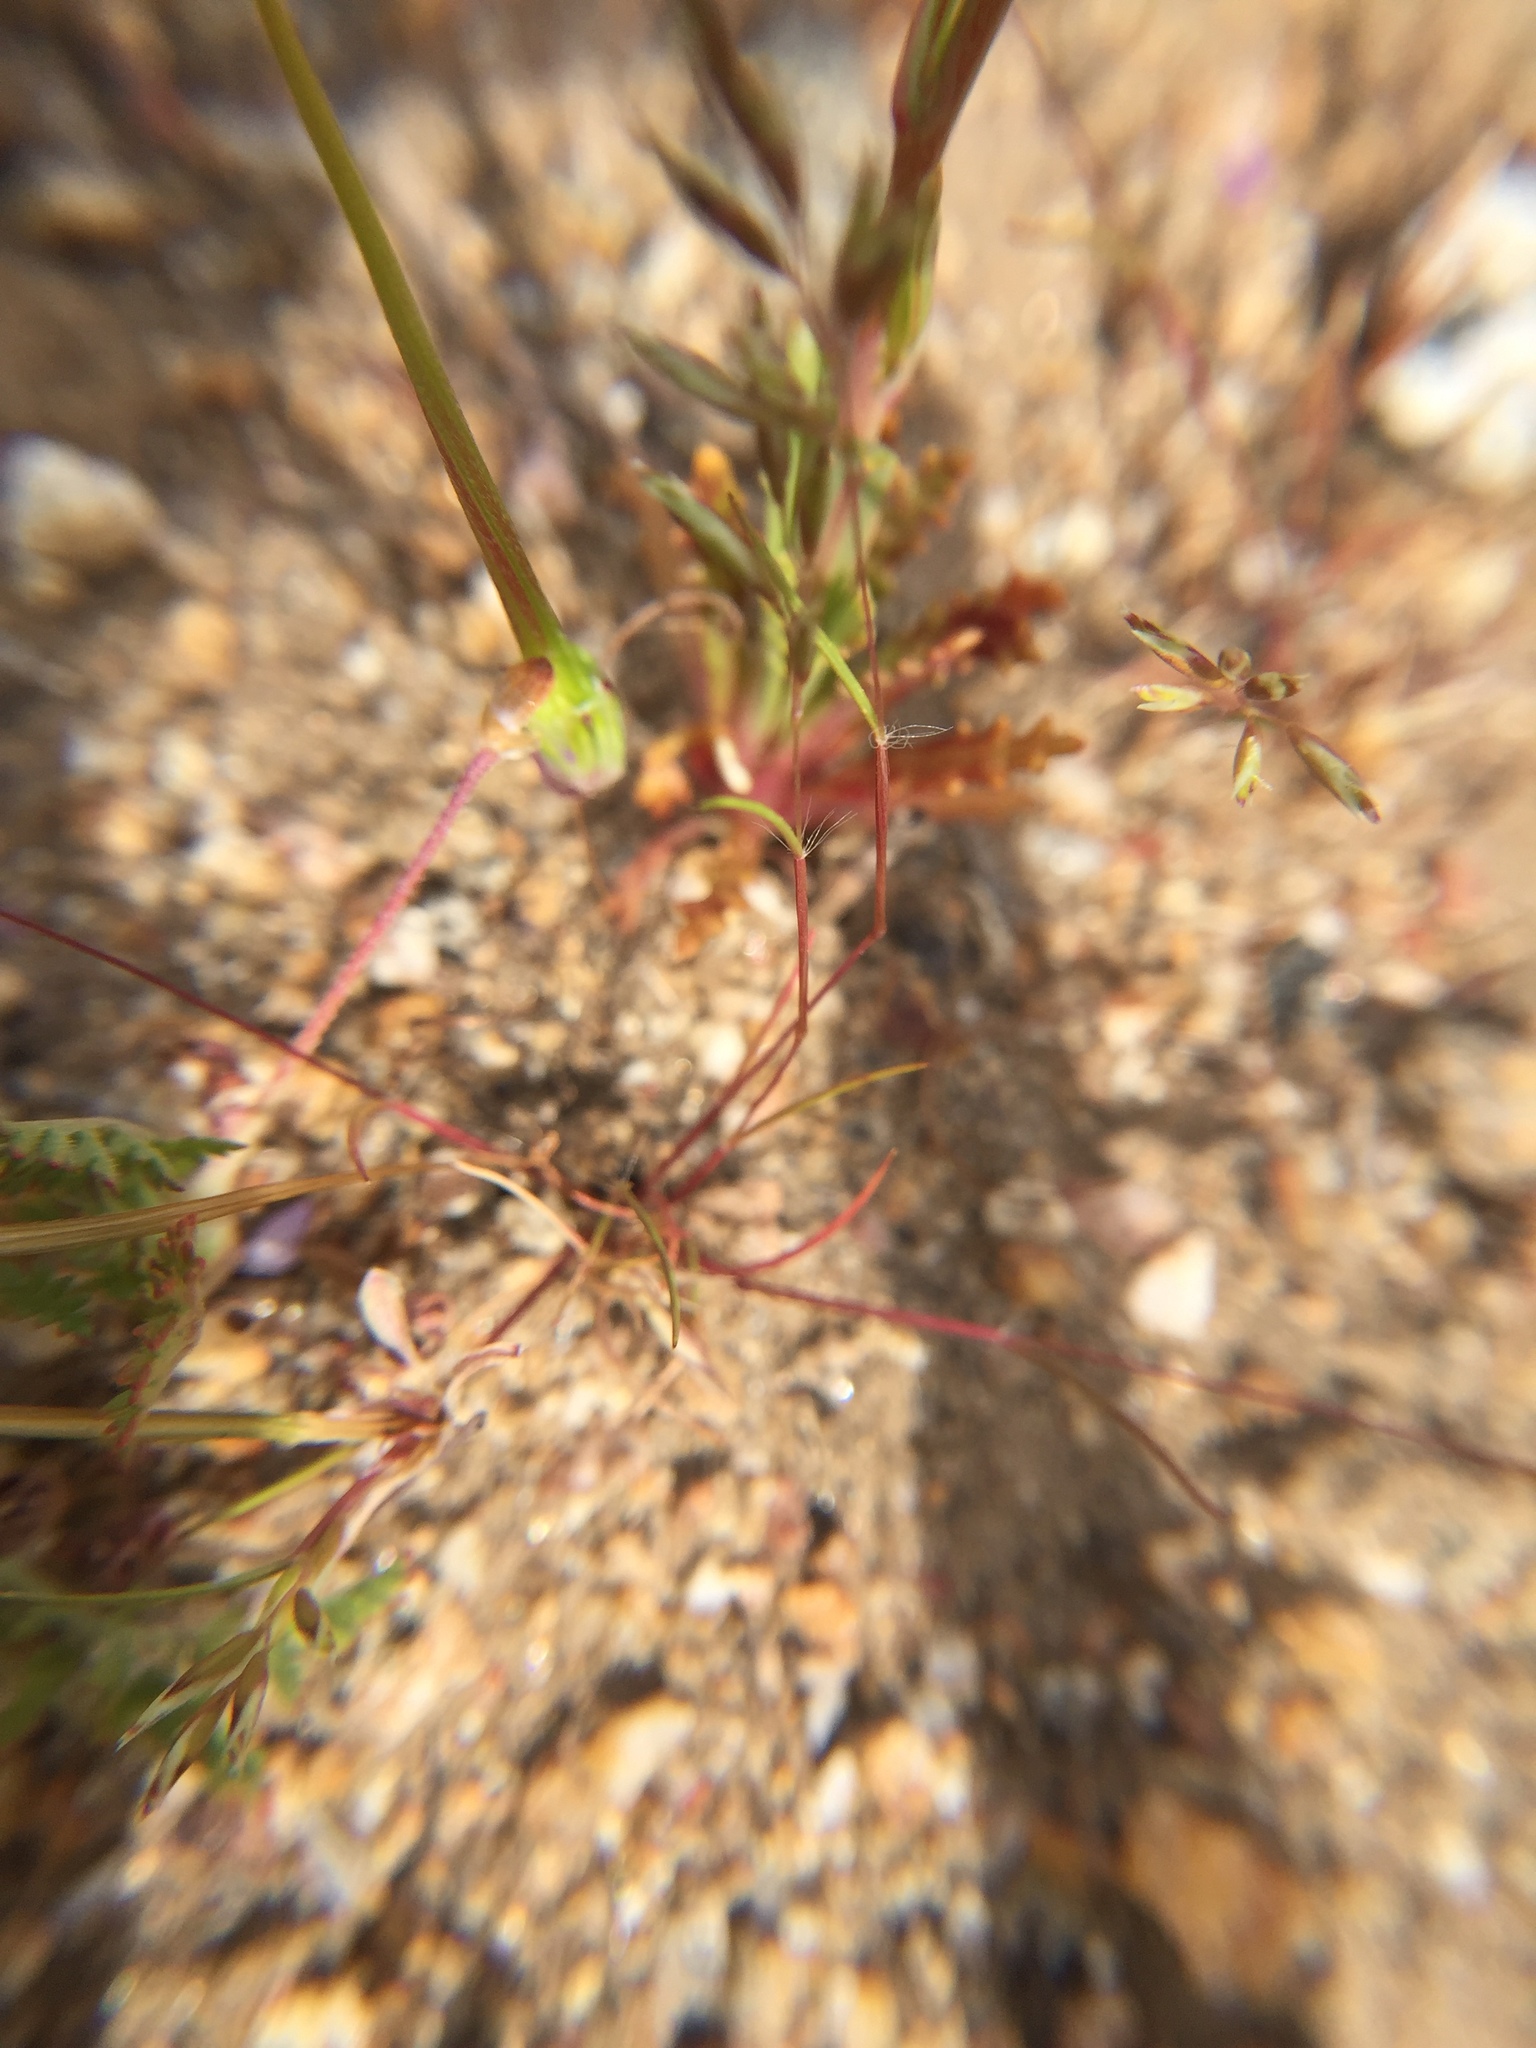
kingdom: Plantae
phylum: Tracheophyta
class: Magnoliopsida
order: Ericales
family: Polemoniaceae
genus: Gilia
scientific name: Gilia diegensis
